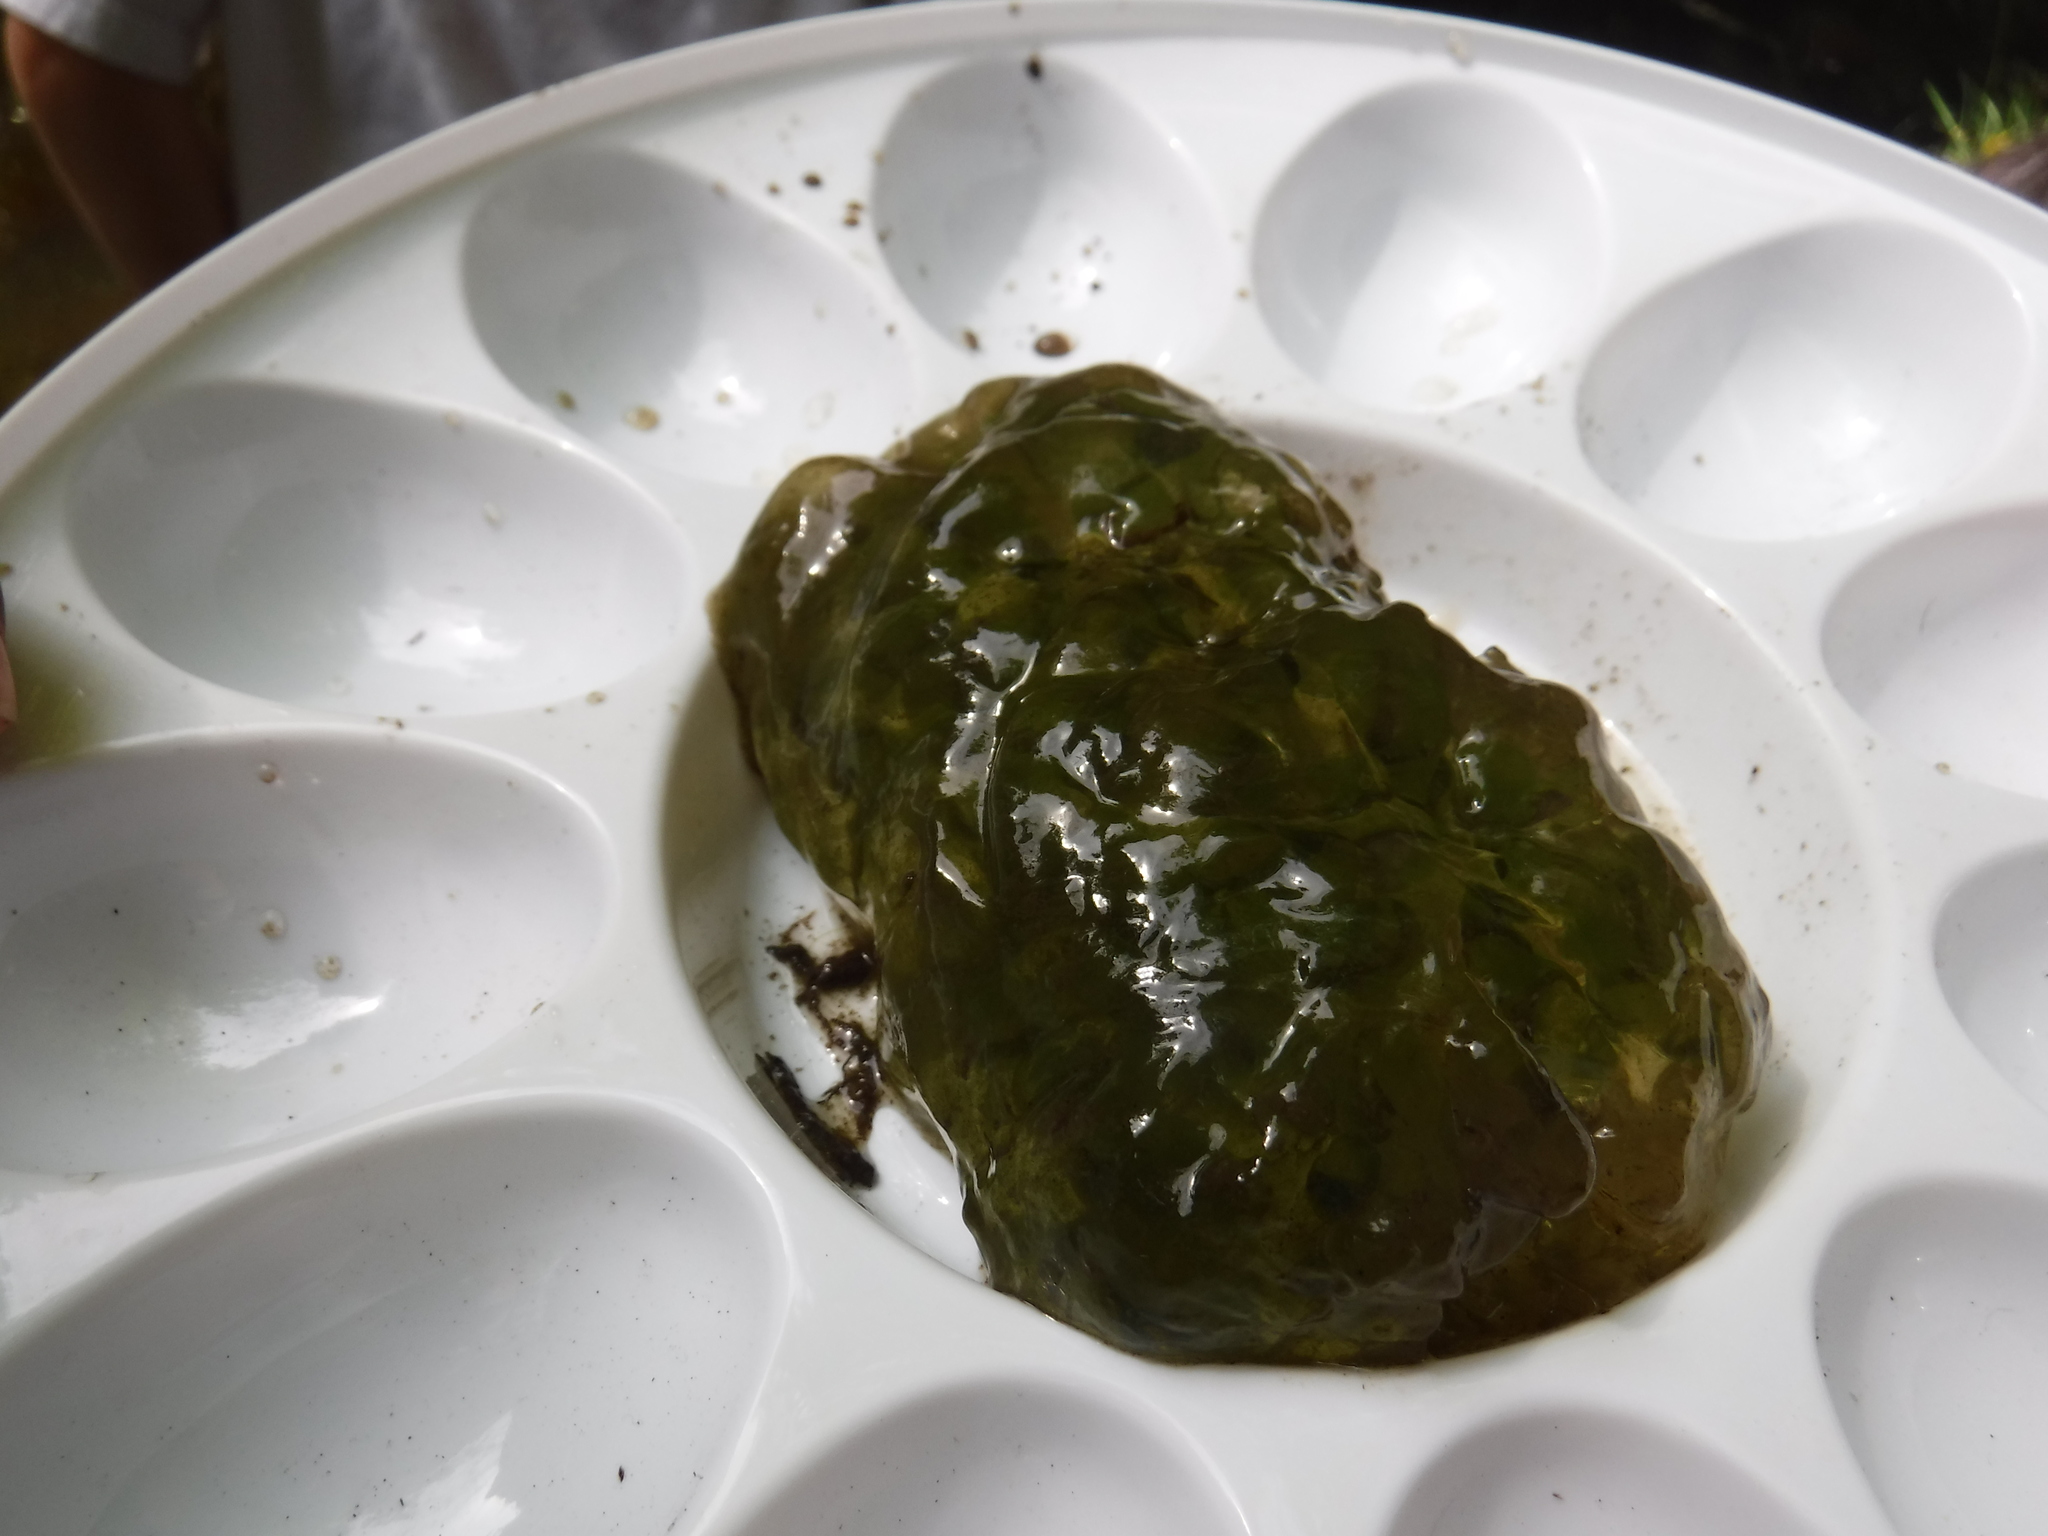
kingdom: Animalia
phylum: Chordata
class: Amphibia
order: Caudata
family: Ambystomatidae
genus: Ambystoma
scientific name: Ambystoma gracile
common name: Northwestern salamander
